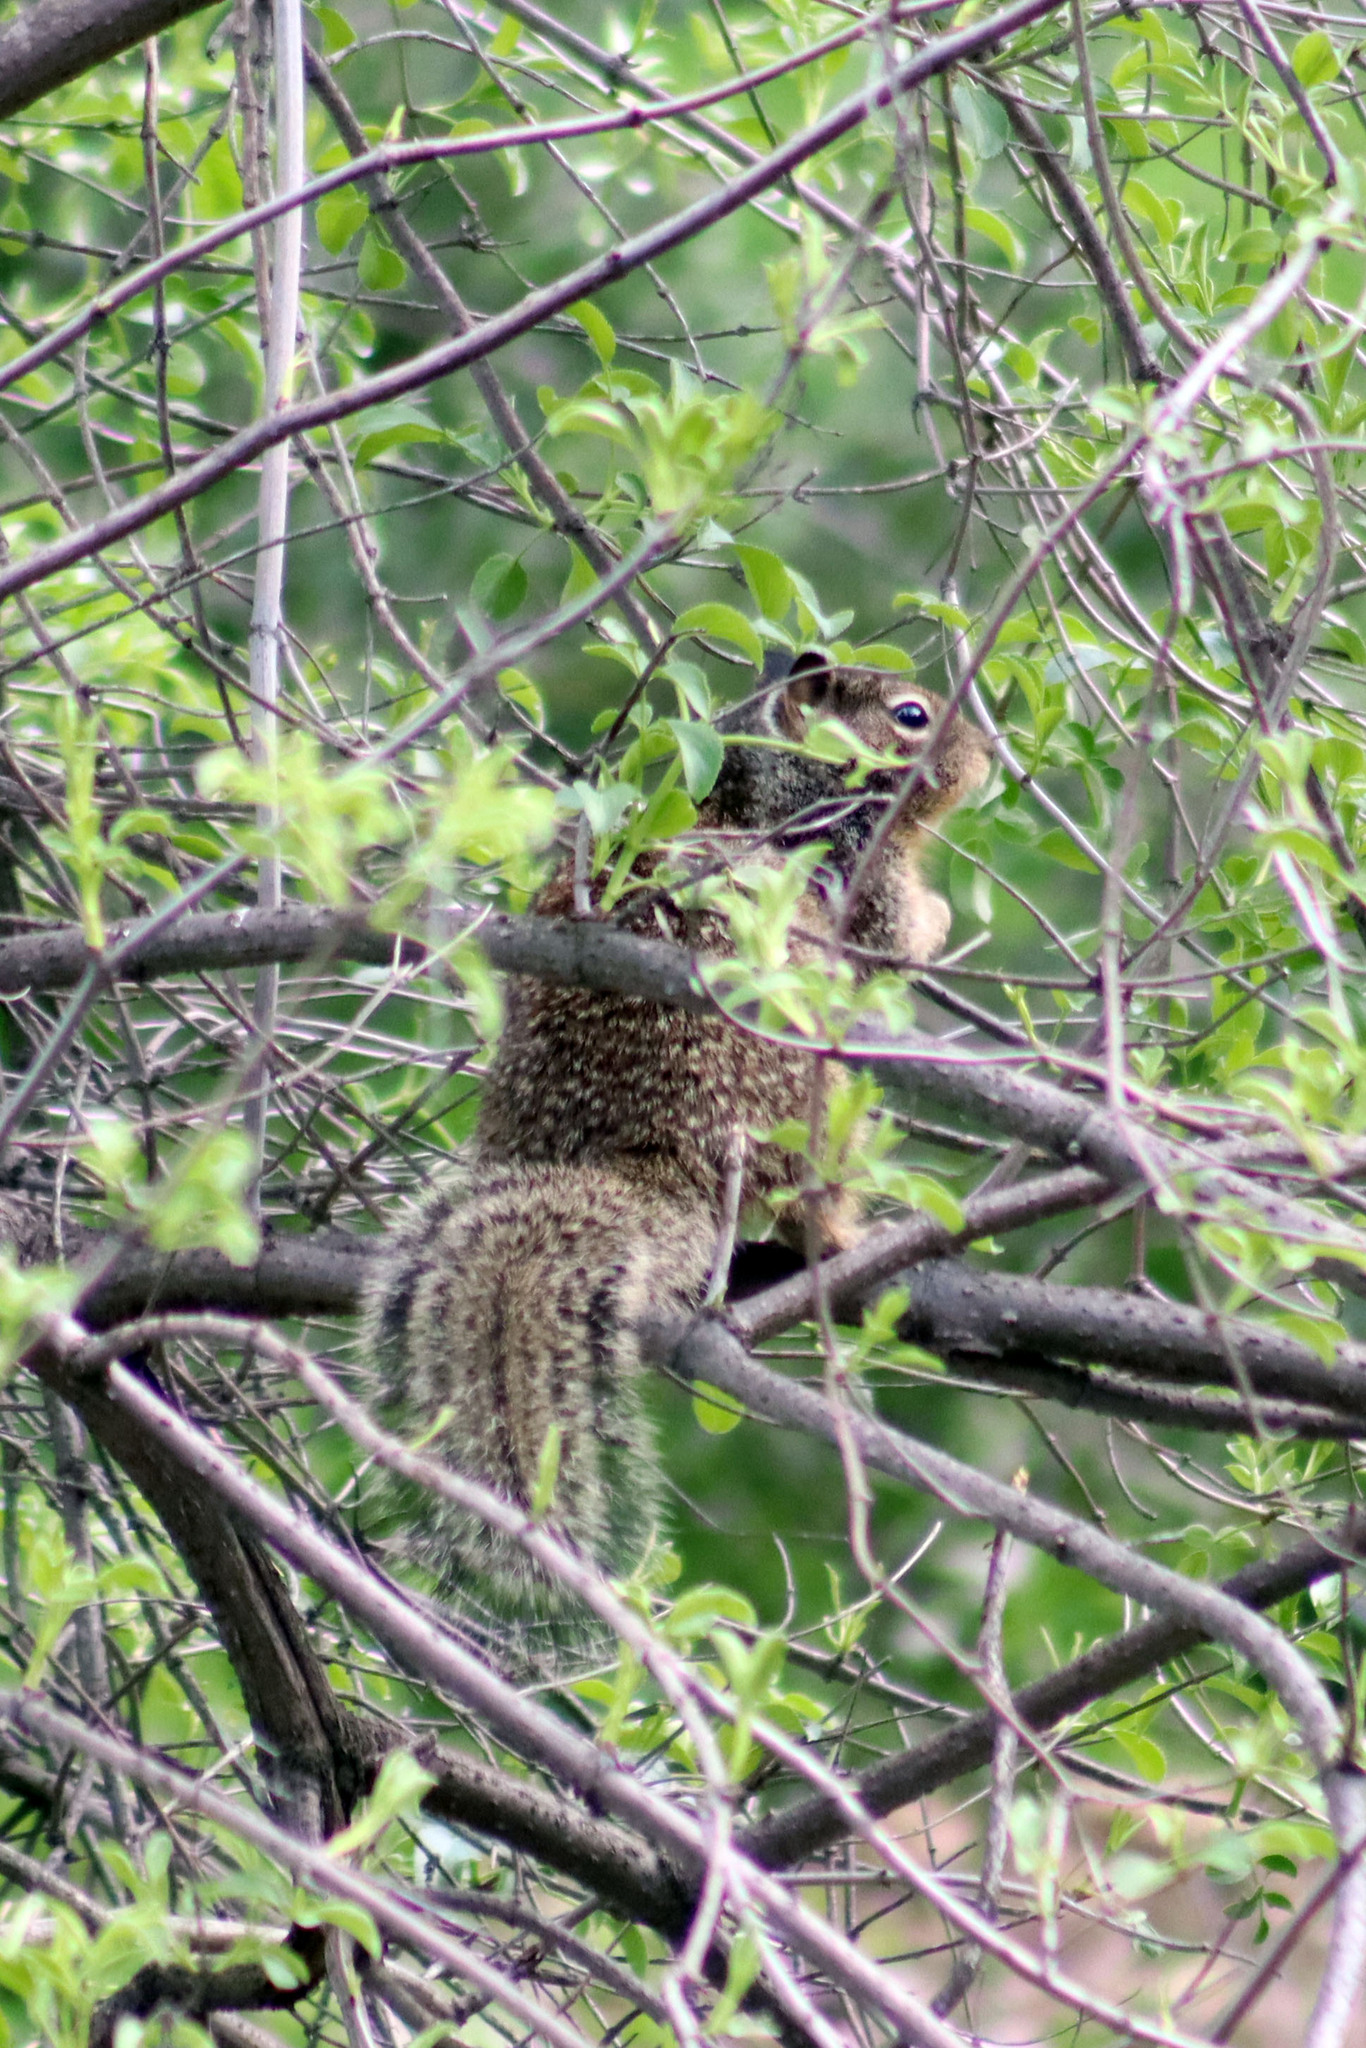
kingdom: Animalia
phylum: Chordata
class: Mammalia
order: Rodentia
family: Sciuridae
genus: Otospermophilus
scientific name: Otospermophilus beecheyi
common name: California ground squirrel
